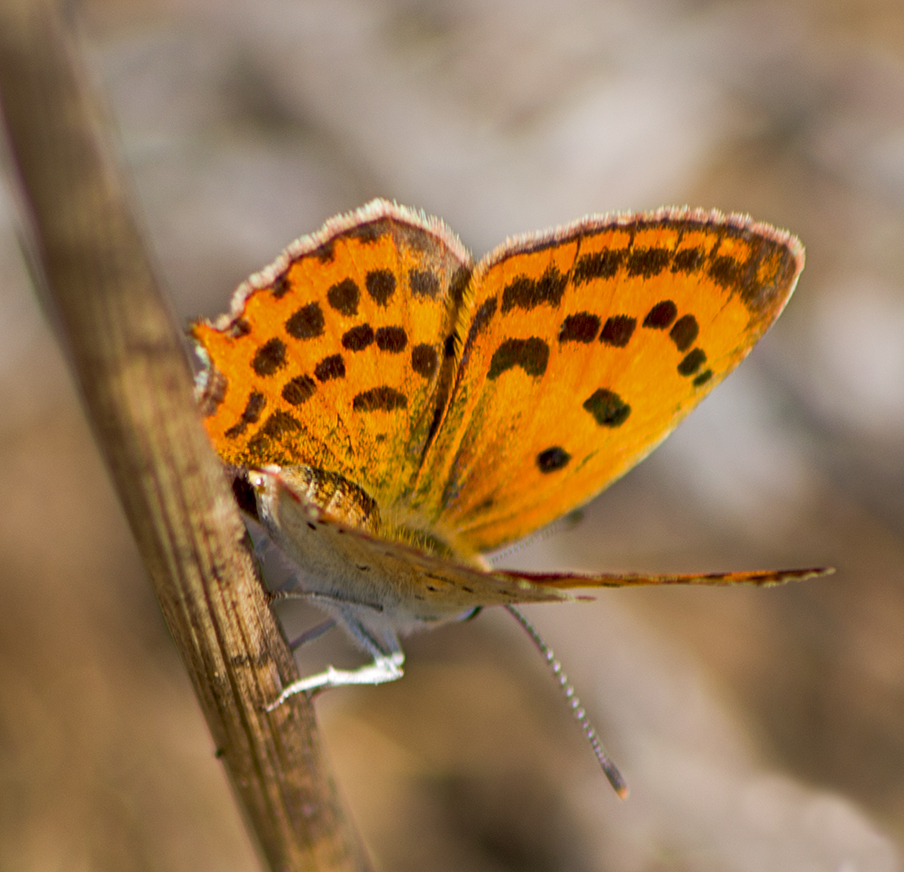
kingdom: Animalia
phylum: Arthropoda
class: Insecta
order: Lepidoptera
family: Lycaenidae
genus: Polyommatus
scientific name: Polyommatus ottomanus
